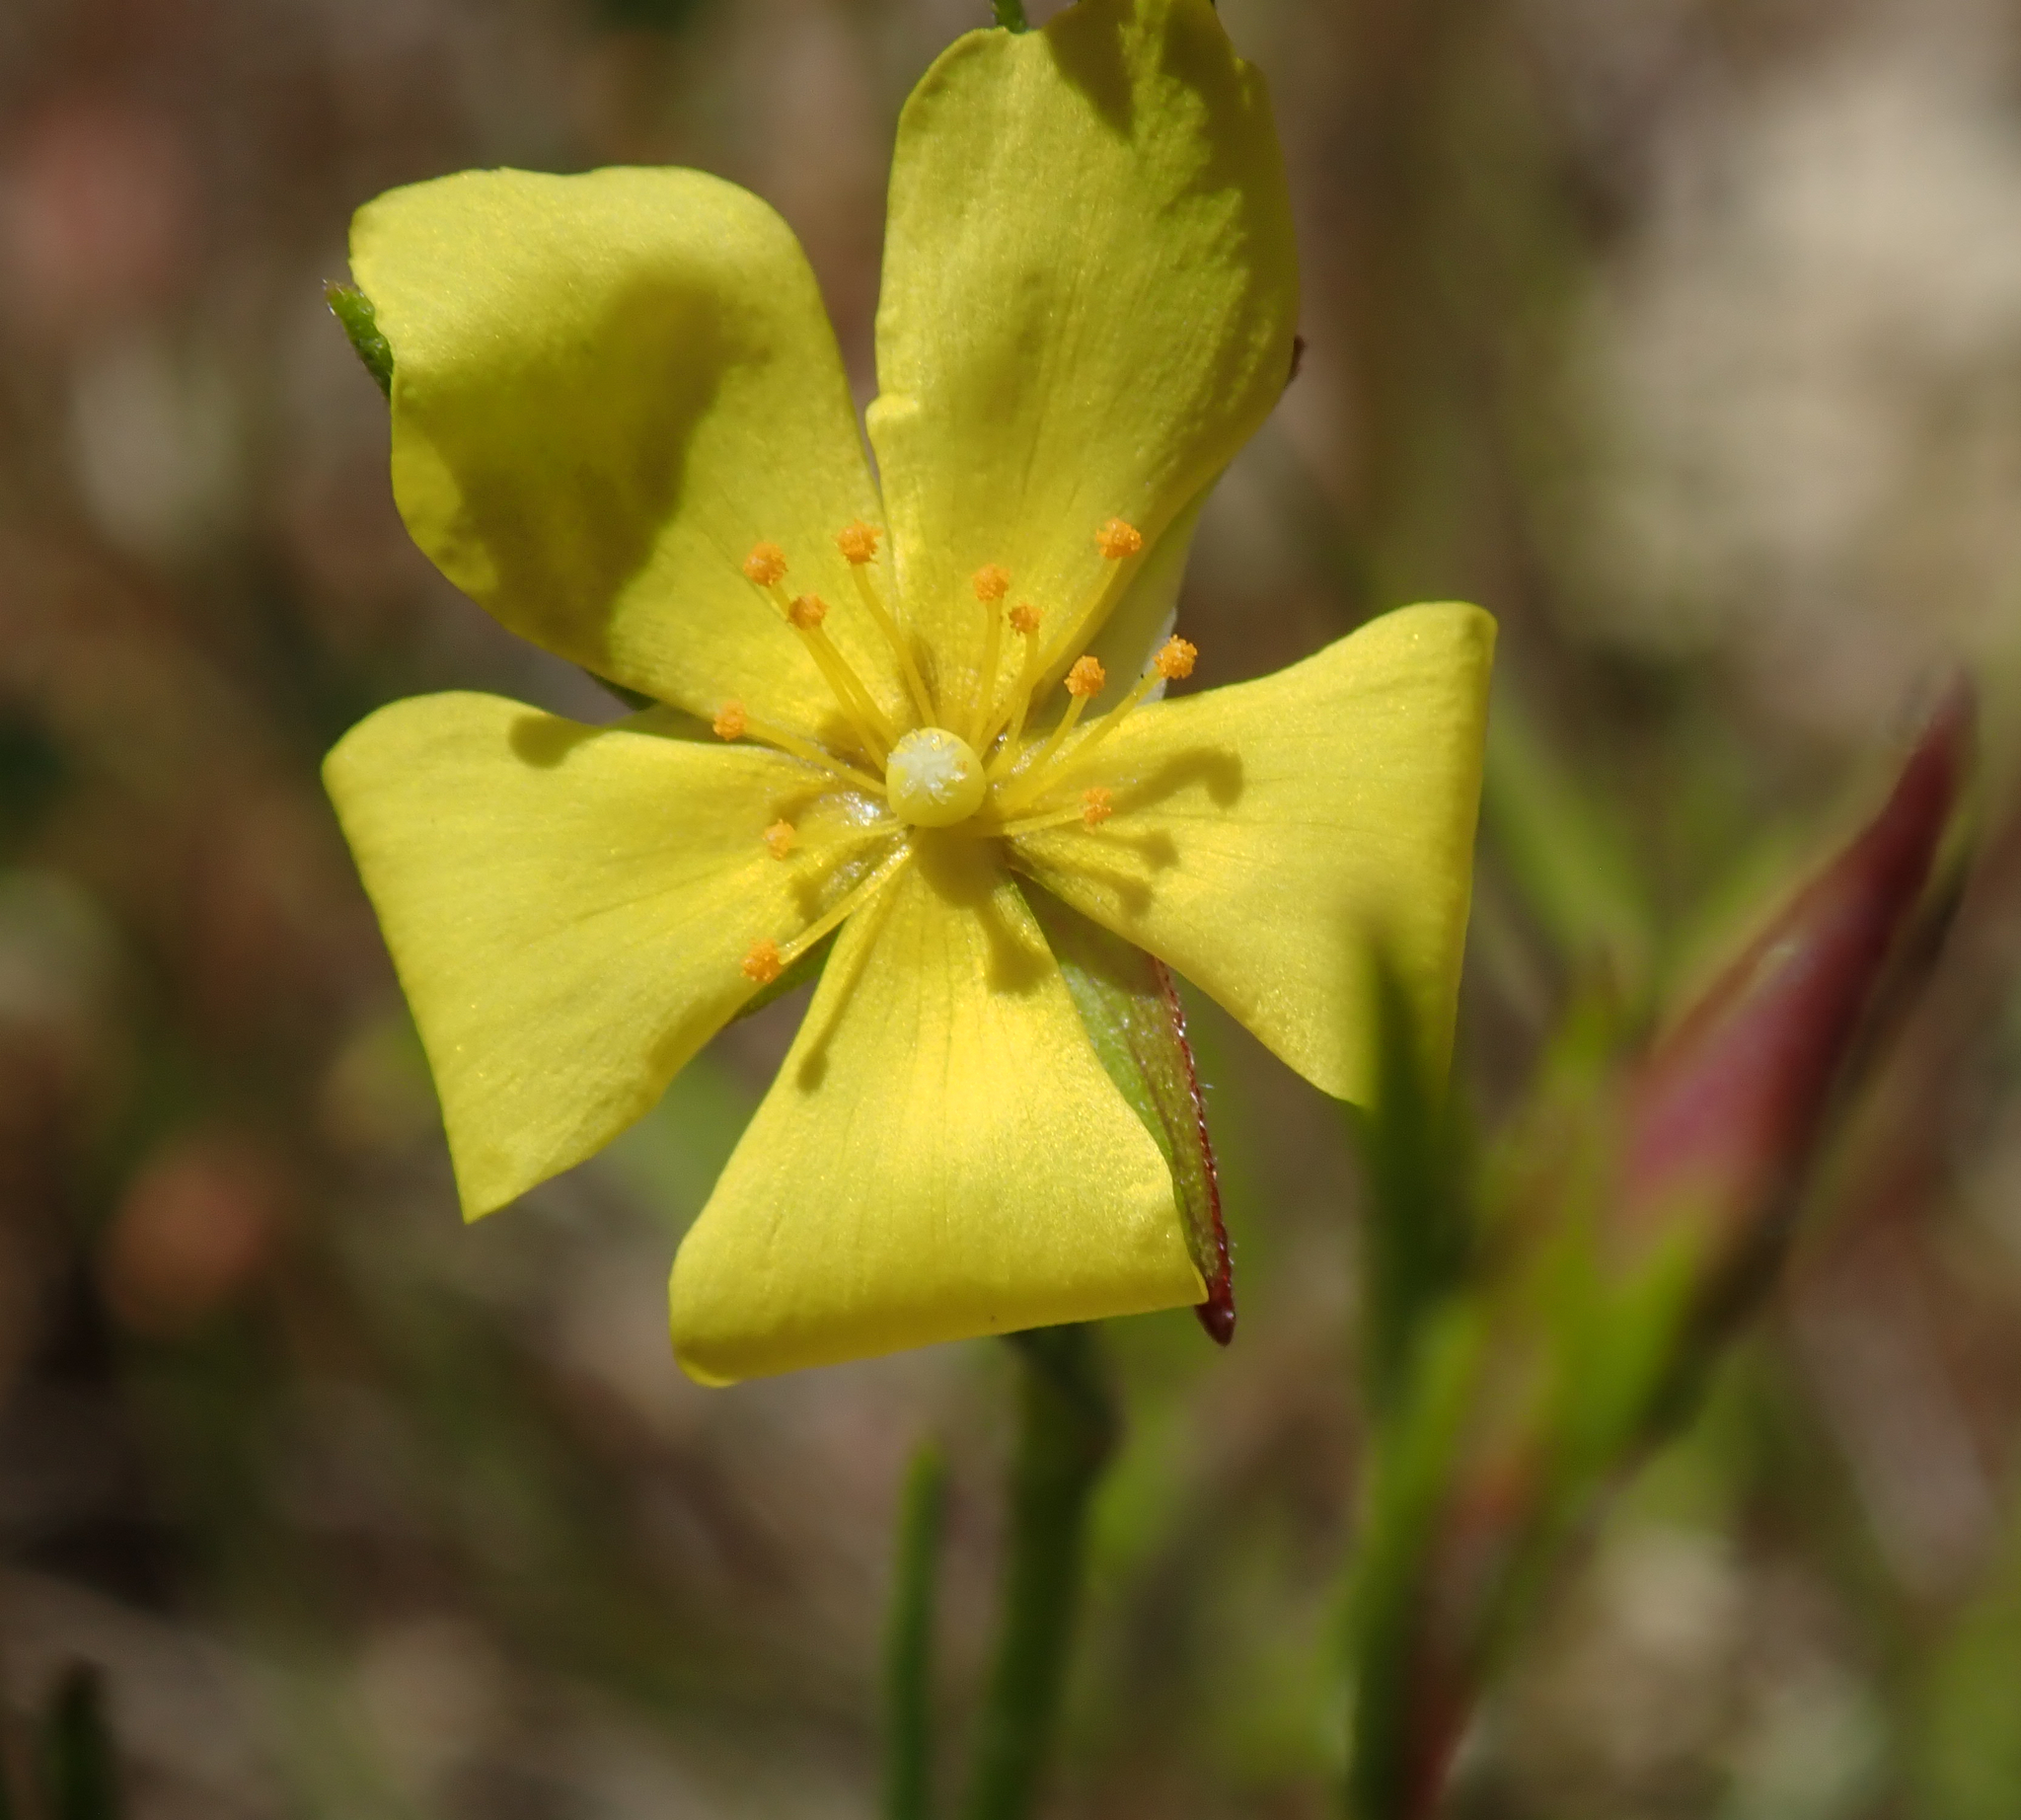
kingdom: Plantae
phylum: Tracheophyta
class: Magnoliopsida
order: Malvales
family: Cistaceae
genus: Crocanthemum
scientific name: Crocanthemum scoparium
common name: Broom-rose
